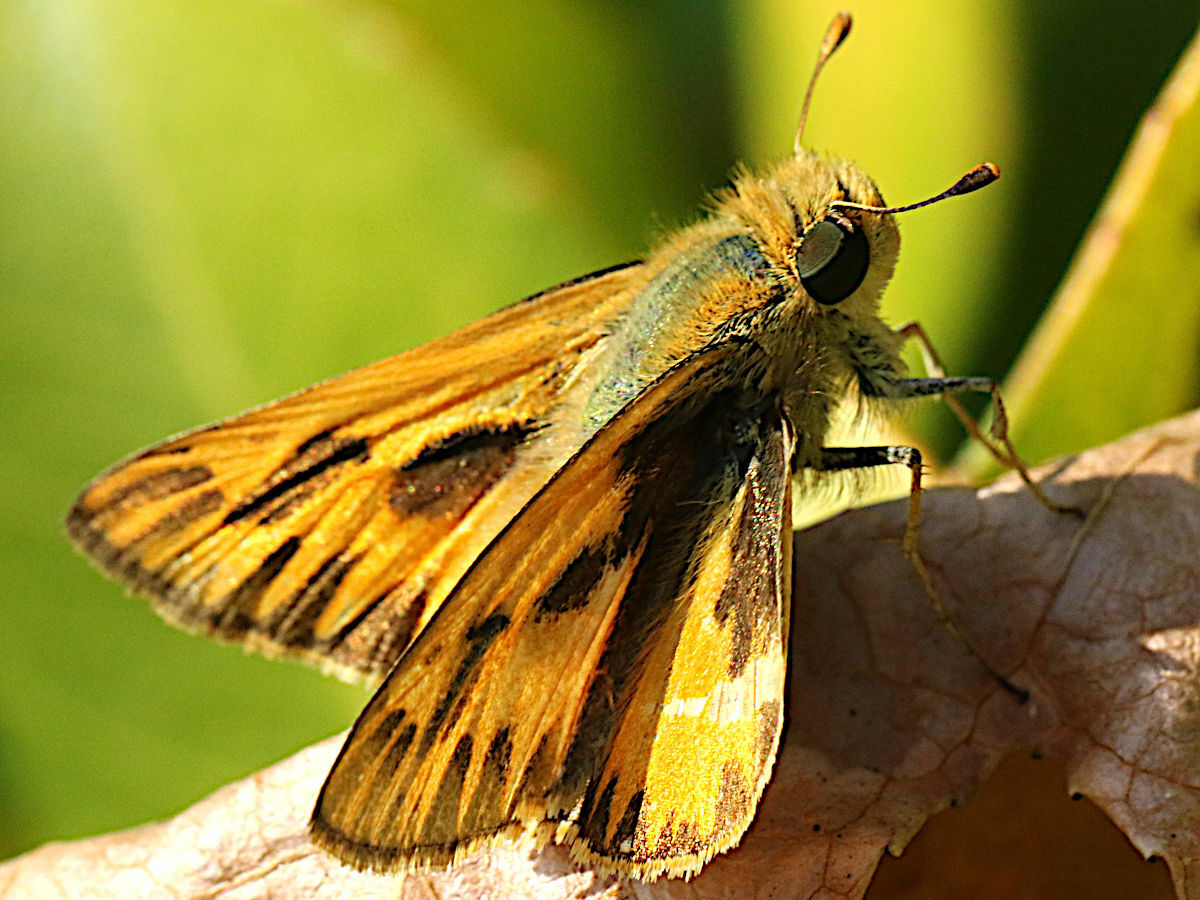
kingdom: Animalia
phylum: Arthropoda
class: Insecta
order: Lepidoptera
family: Hesperiidae
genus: Hylephila
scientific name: Hylephila phyleus
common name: Fiery skipper
